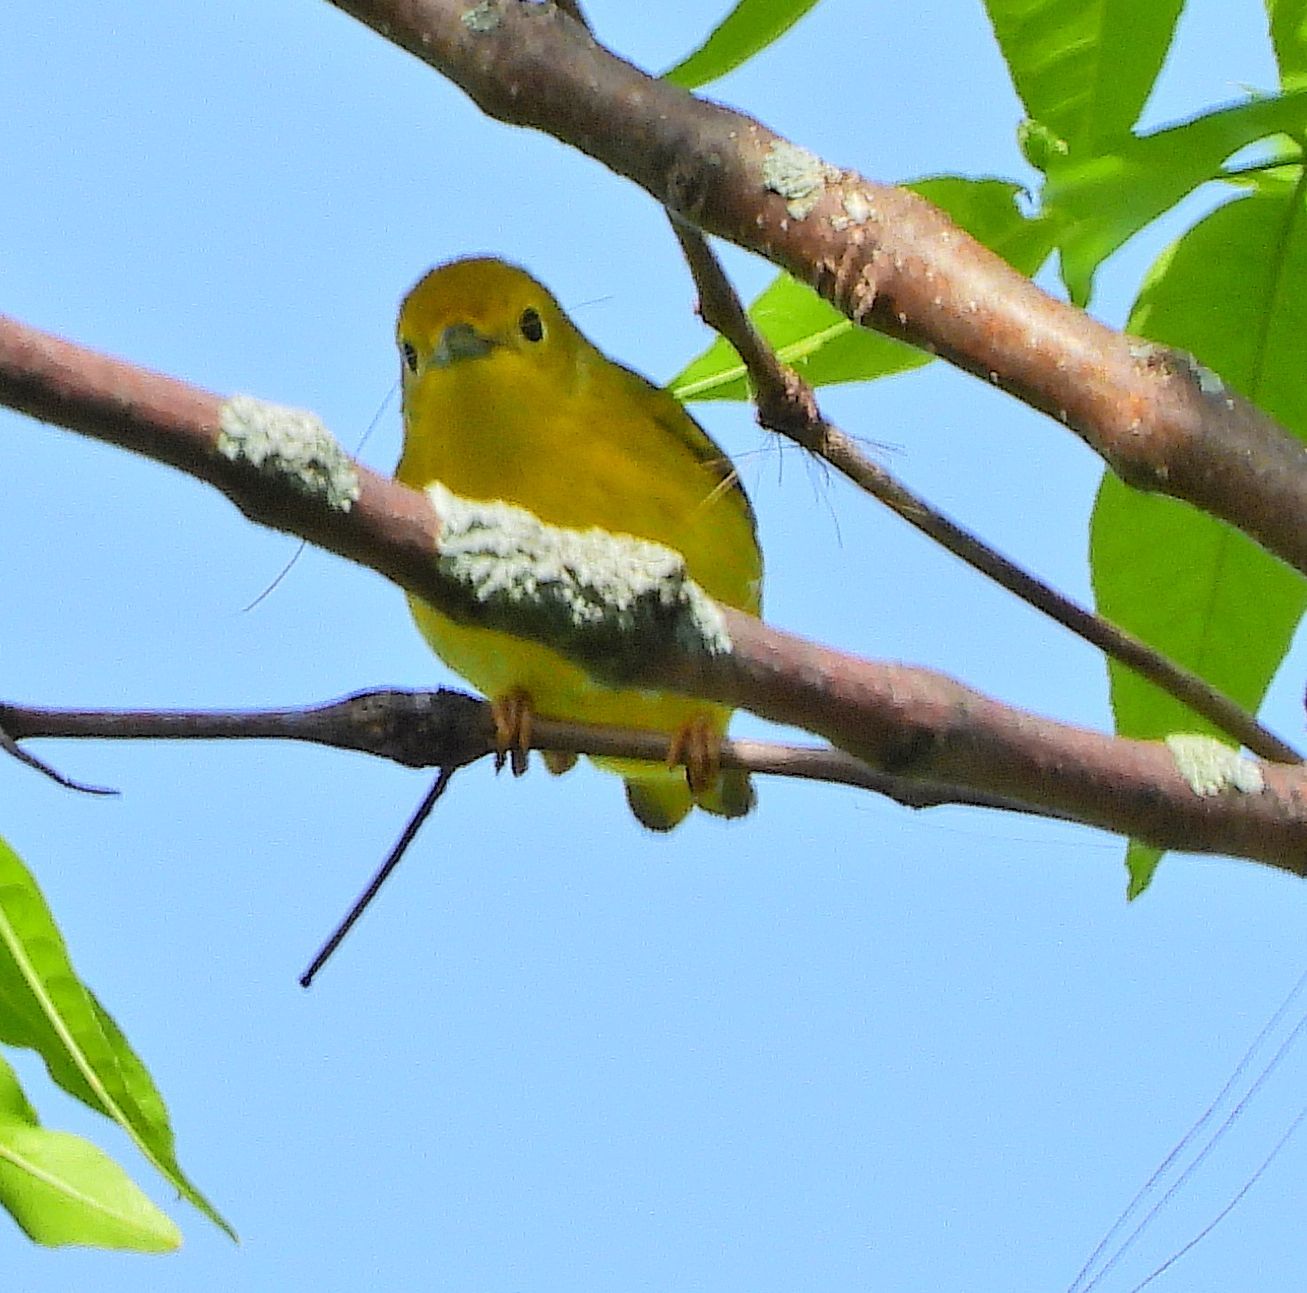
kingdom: Animalia
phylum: Chordata
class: Aves
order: Passeriformes
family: Parulidae
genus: Setophaga
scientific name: Setophaga petechia
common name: Yellow warbler
